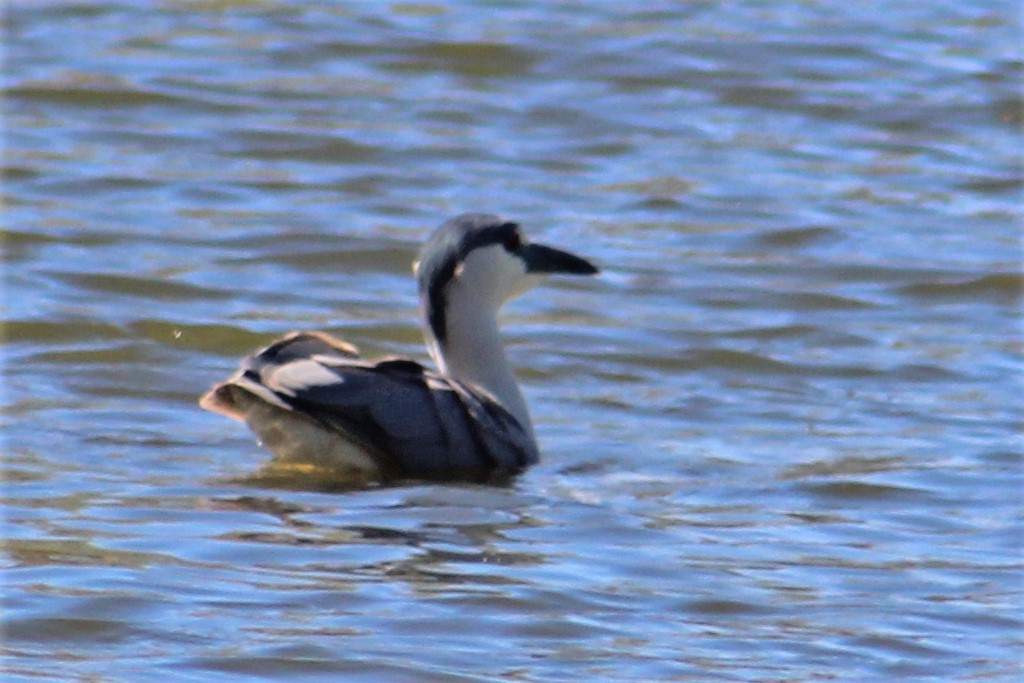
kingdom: Animalia
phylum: Chordata
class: Aves
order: Pelecaniformes
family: Ardeidae
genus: Nycticorax
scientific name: Nycticorax nycticorax
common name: Black-crowned night heron
